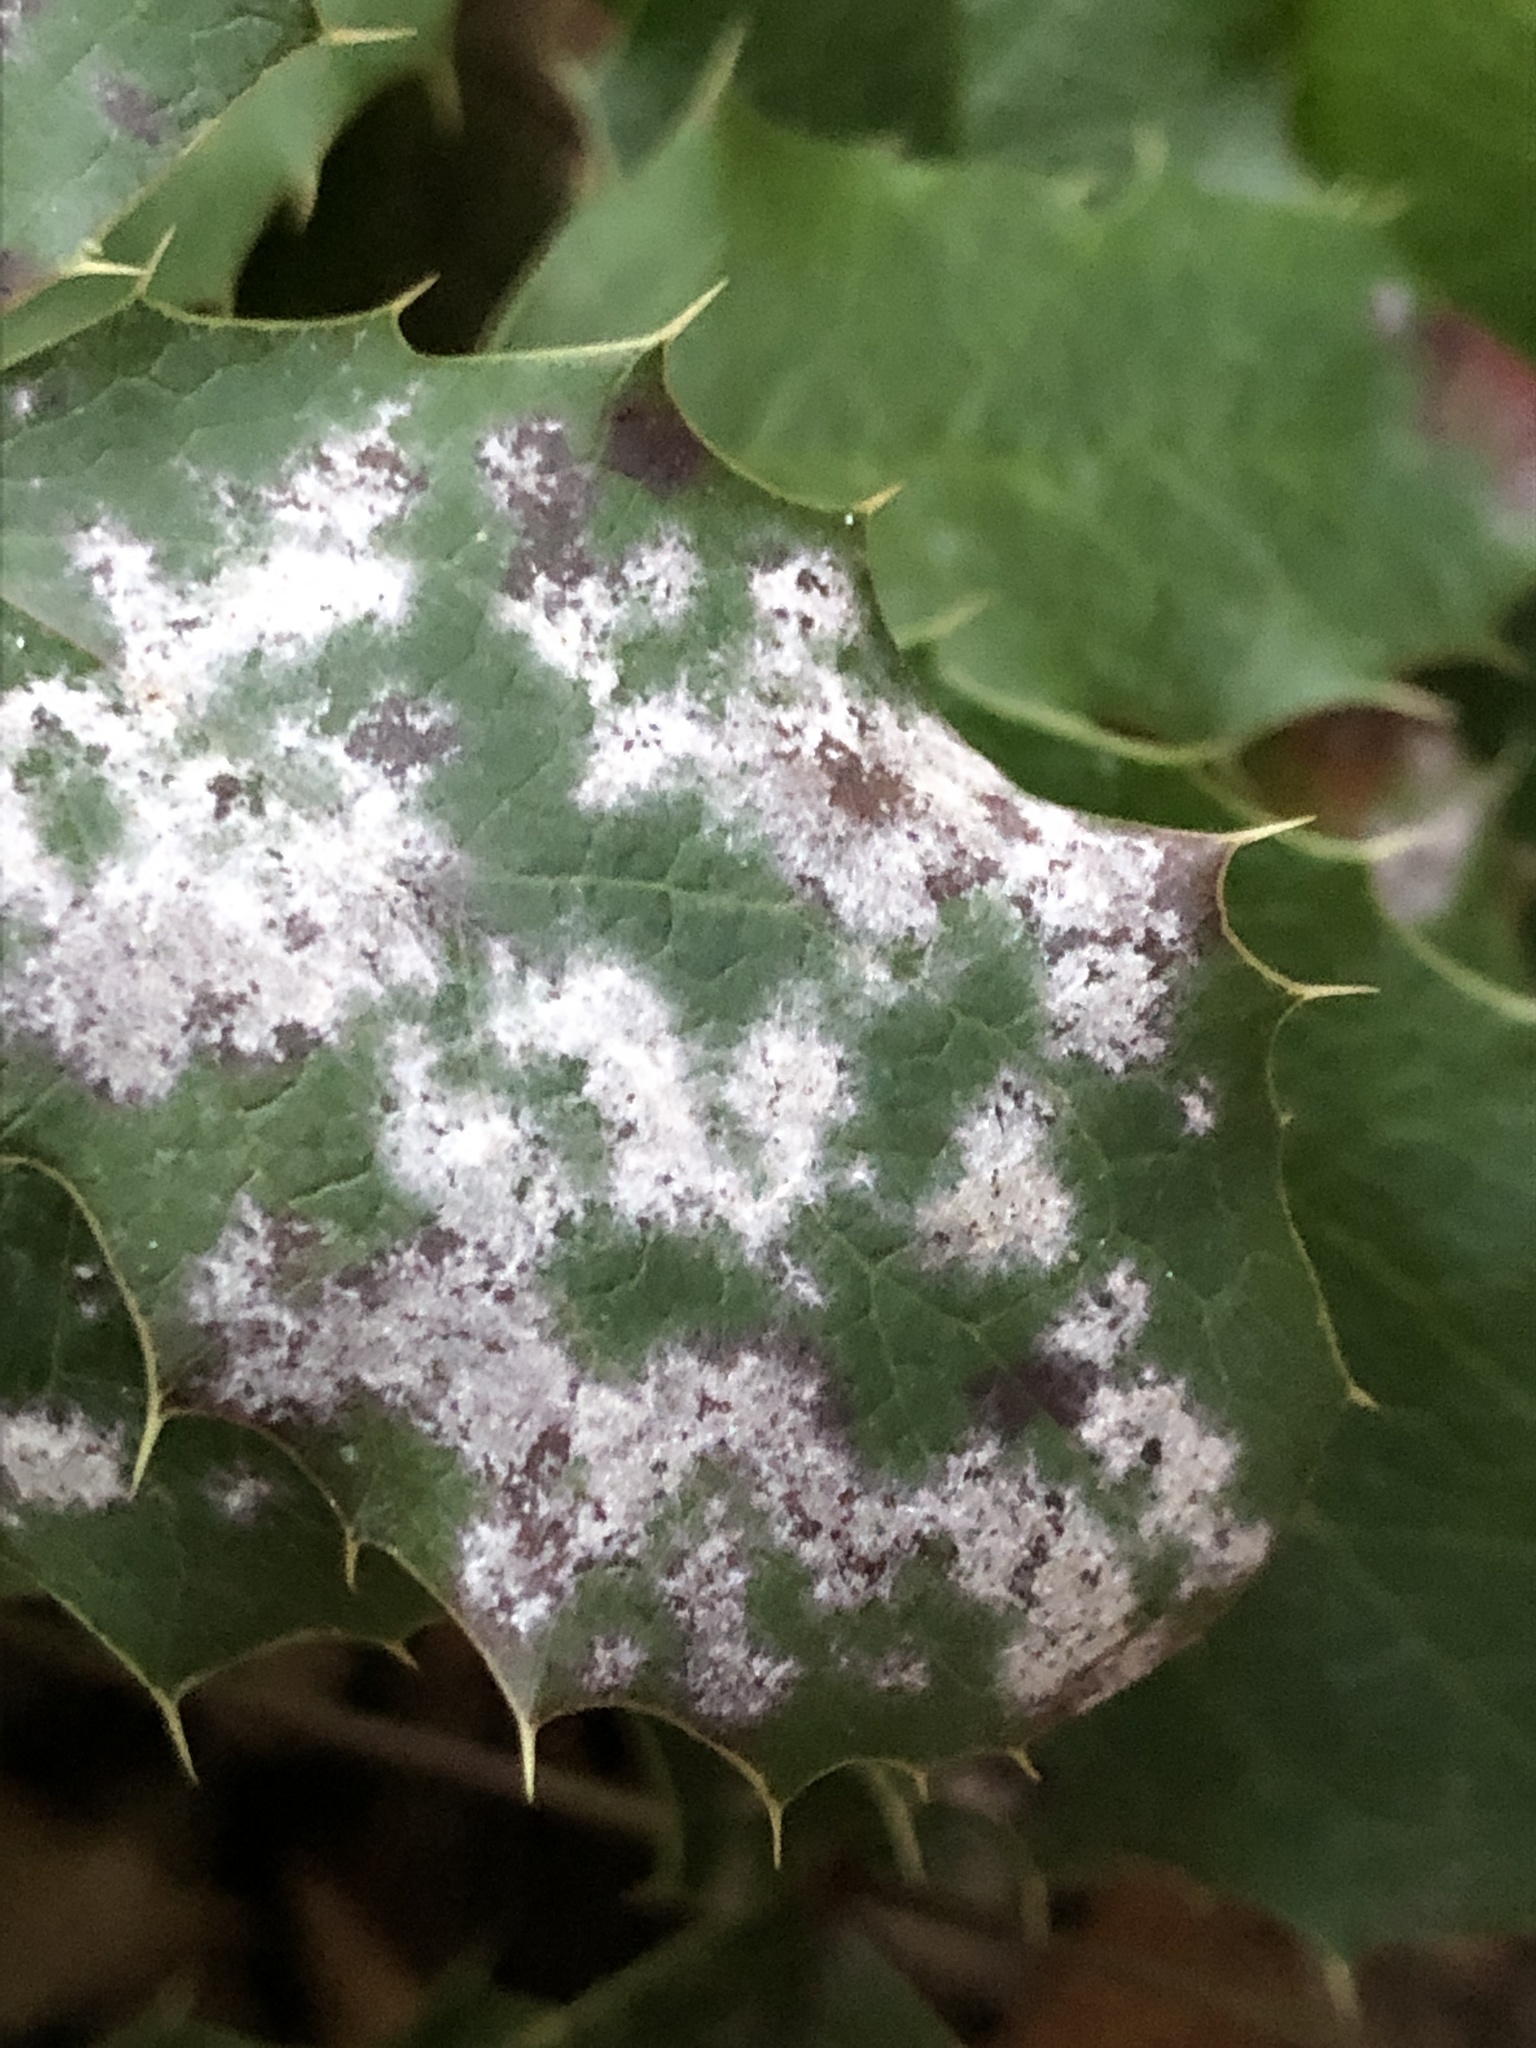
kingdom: Fungi
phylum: Ascomycota
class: Leotiomycetes
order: Helotiales
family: Erysiphaceae
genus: Erysiphe
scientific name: Erysiphe berberidis
